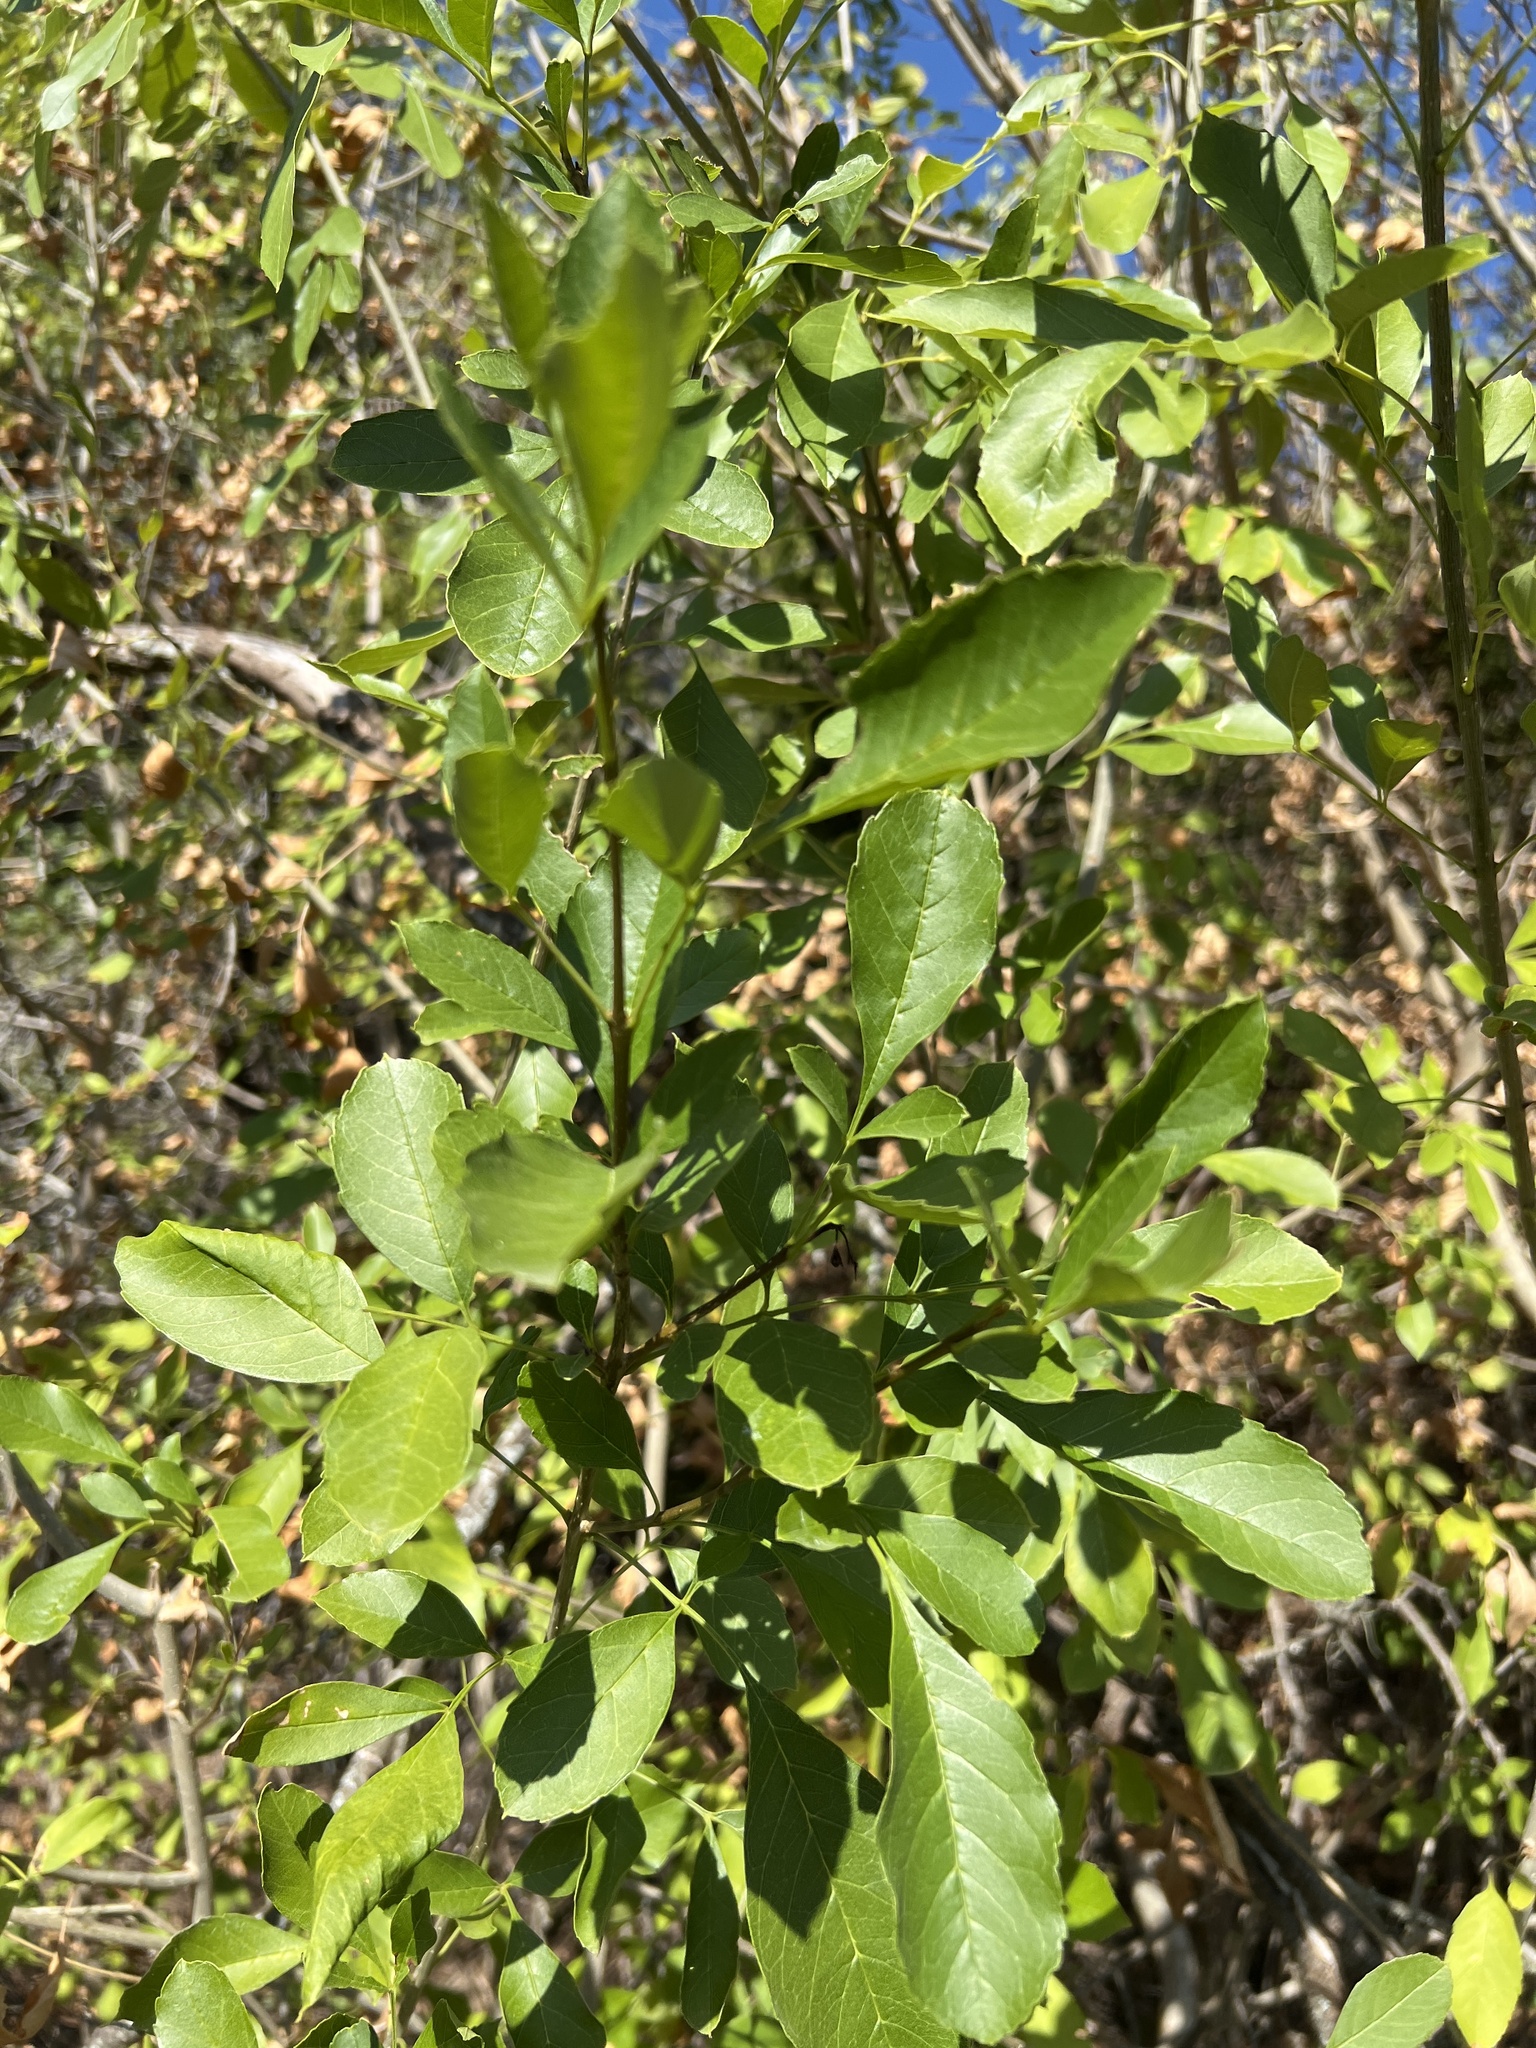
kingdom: Plantae
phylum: Tracheophyta
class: Magnoliopsida
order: Lamiales
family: Oleaceae
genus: Fraxinus
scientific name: Fraxinus berlandieriana
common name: Berlandier ash
